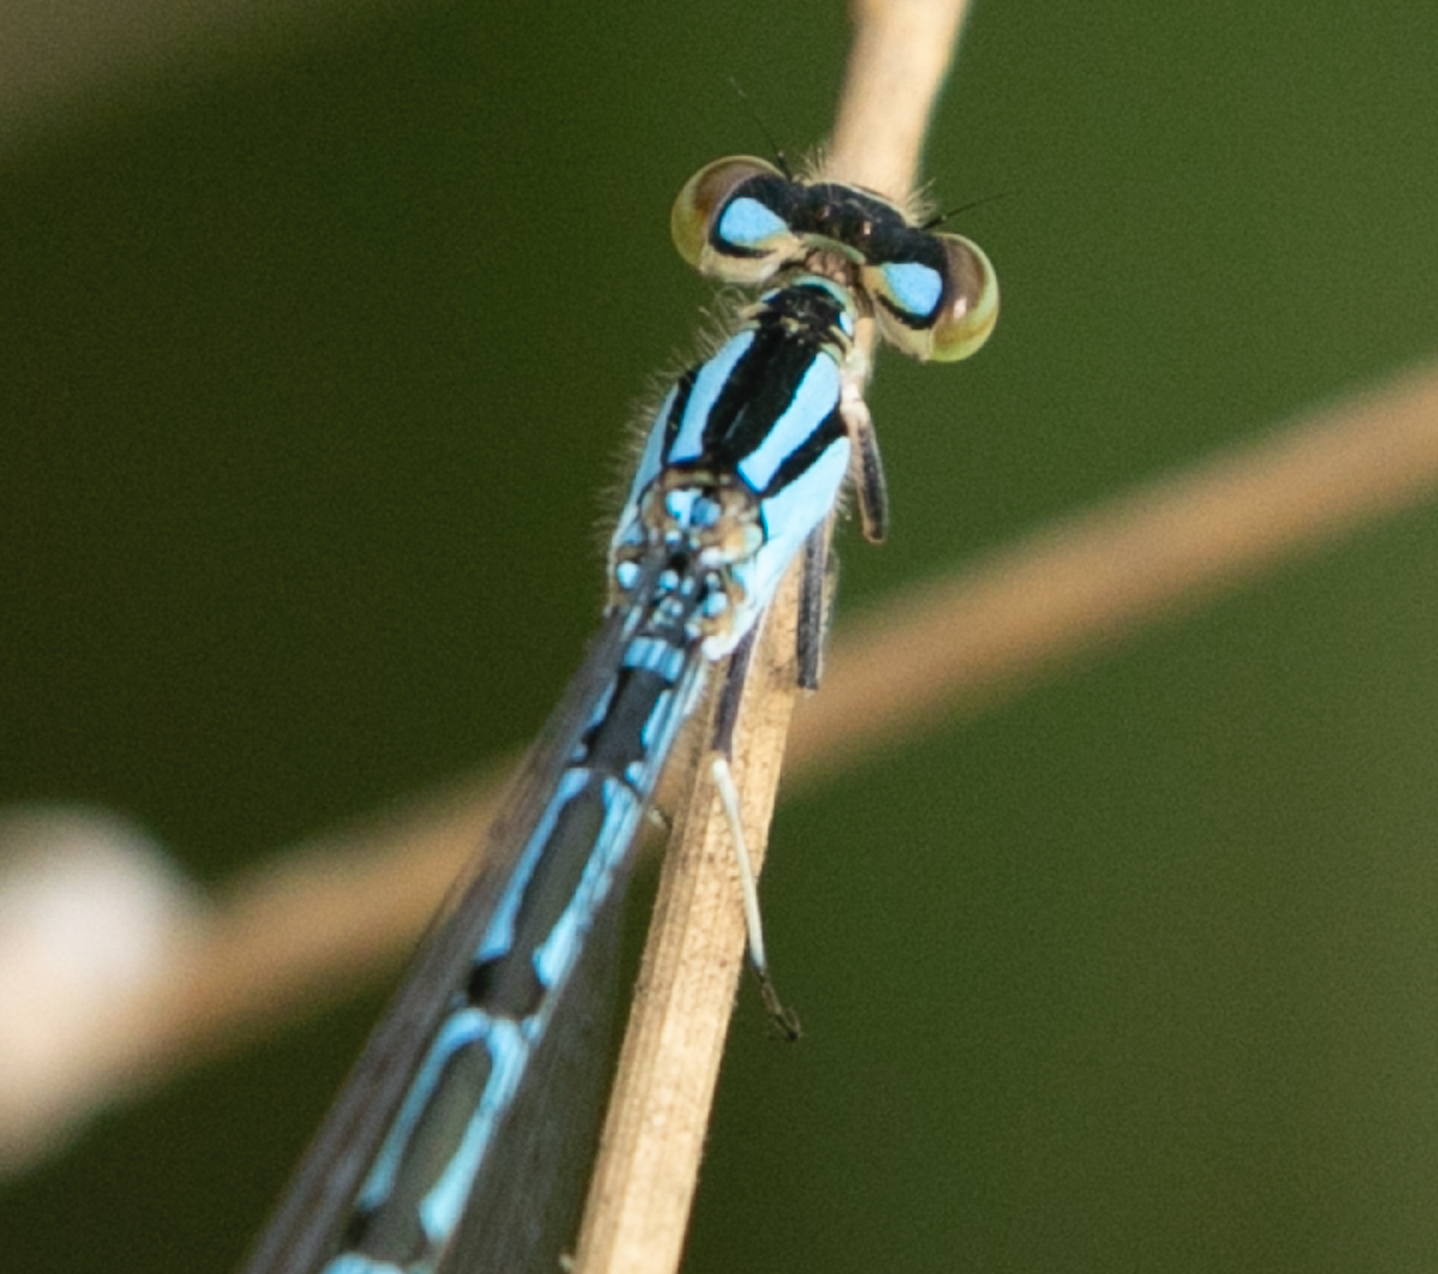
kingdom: Animalia
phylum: Arthropoda
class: Insecta
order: Odonata
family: Coenagrionidae
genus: Enallagma
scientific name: Enallagma cyathigerum
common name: Common blue damselfly
